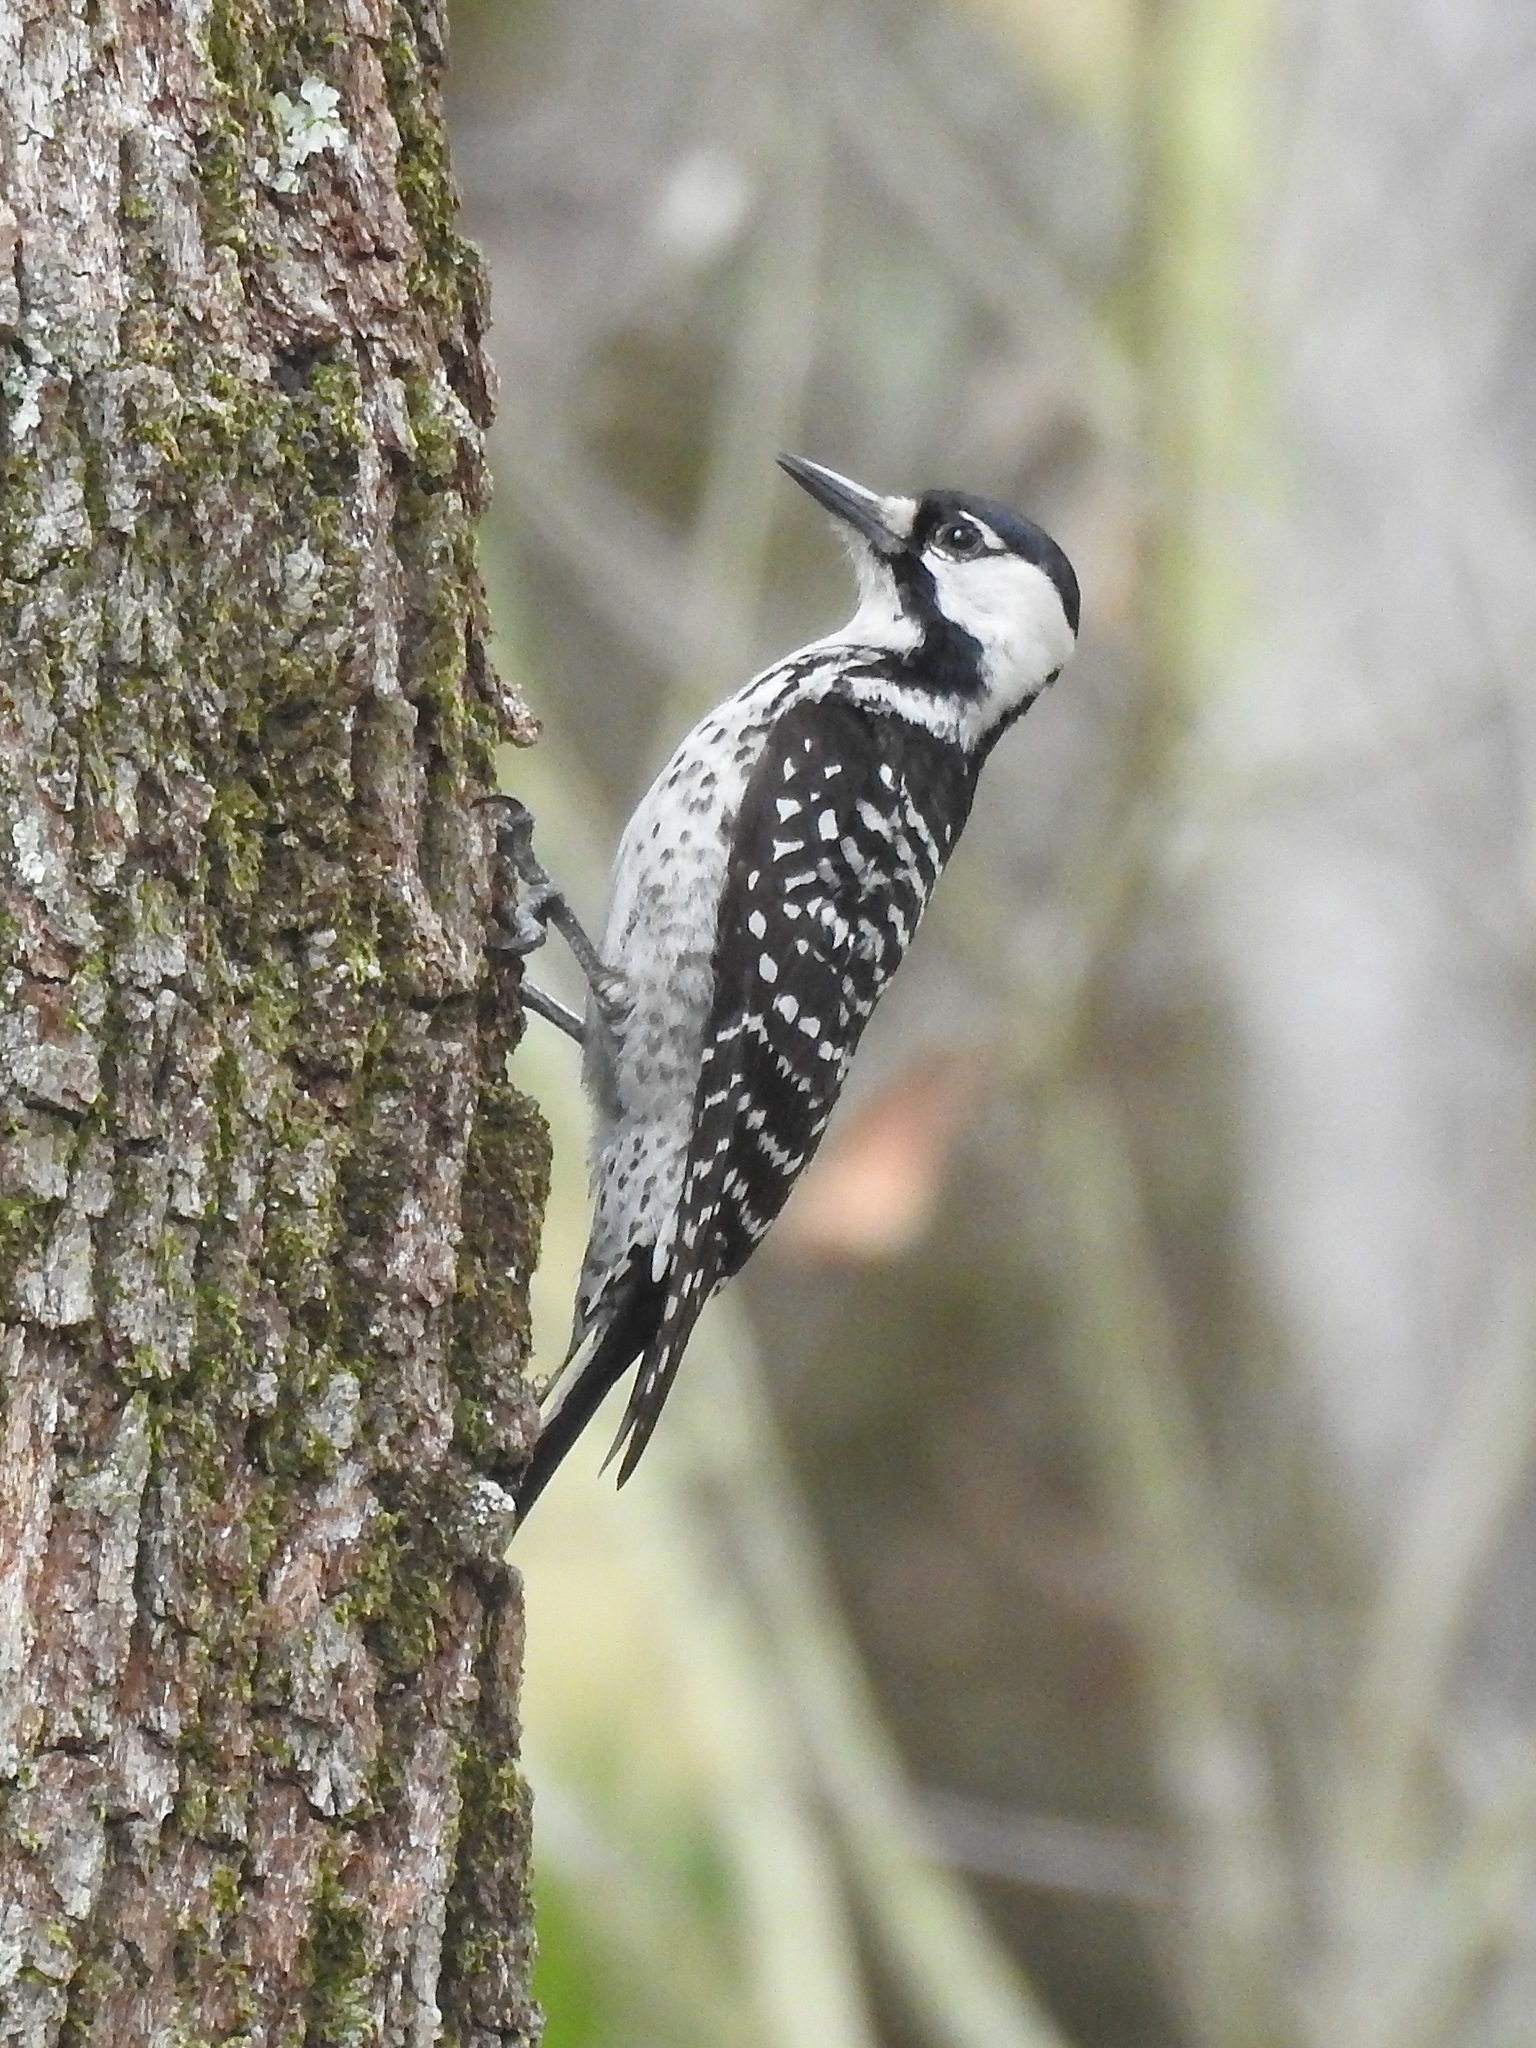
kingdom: Animalia
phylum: Chordata
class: Aves
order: Piciformes
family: Picidae
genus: Leuconotopicus
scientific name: Leuconotopicus borealis
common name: Red-cockaded woodpecker
